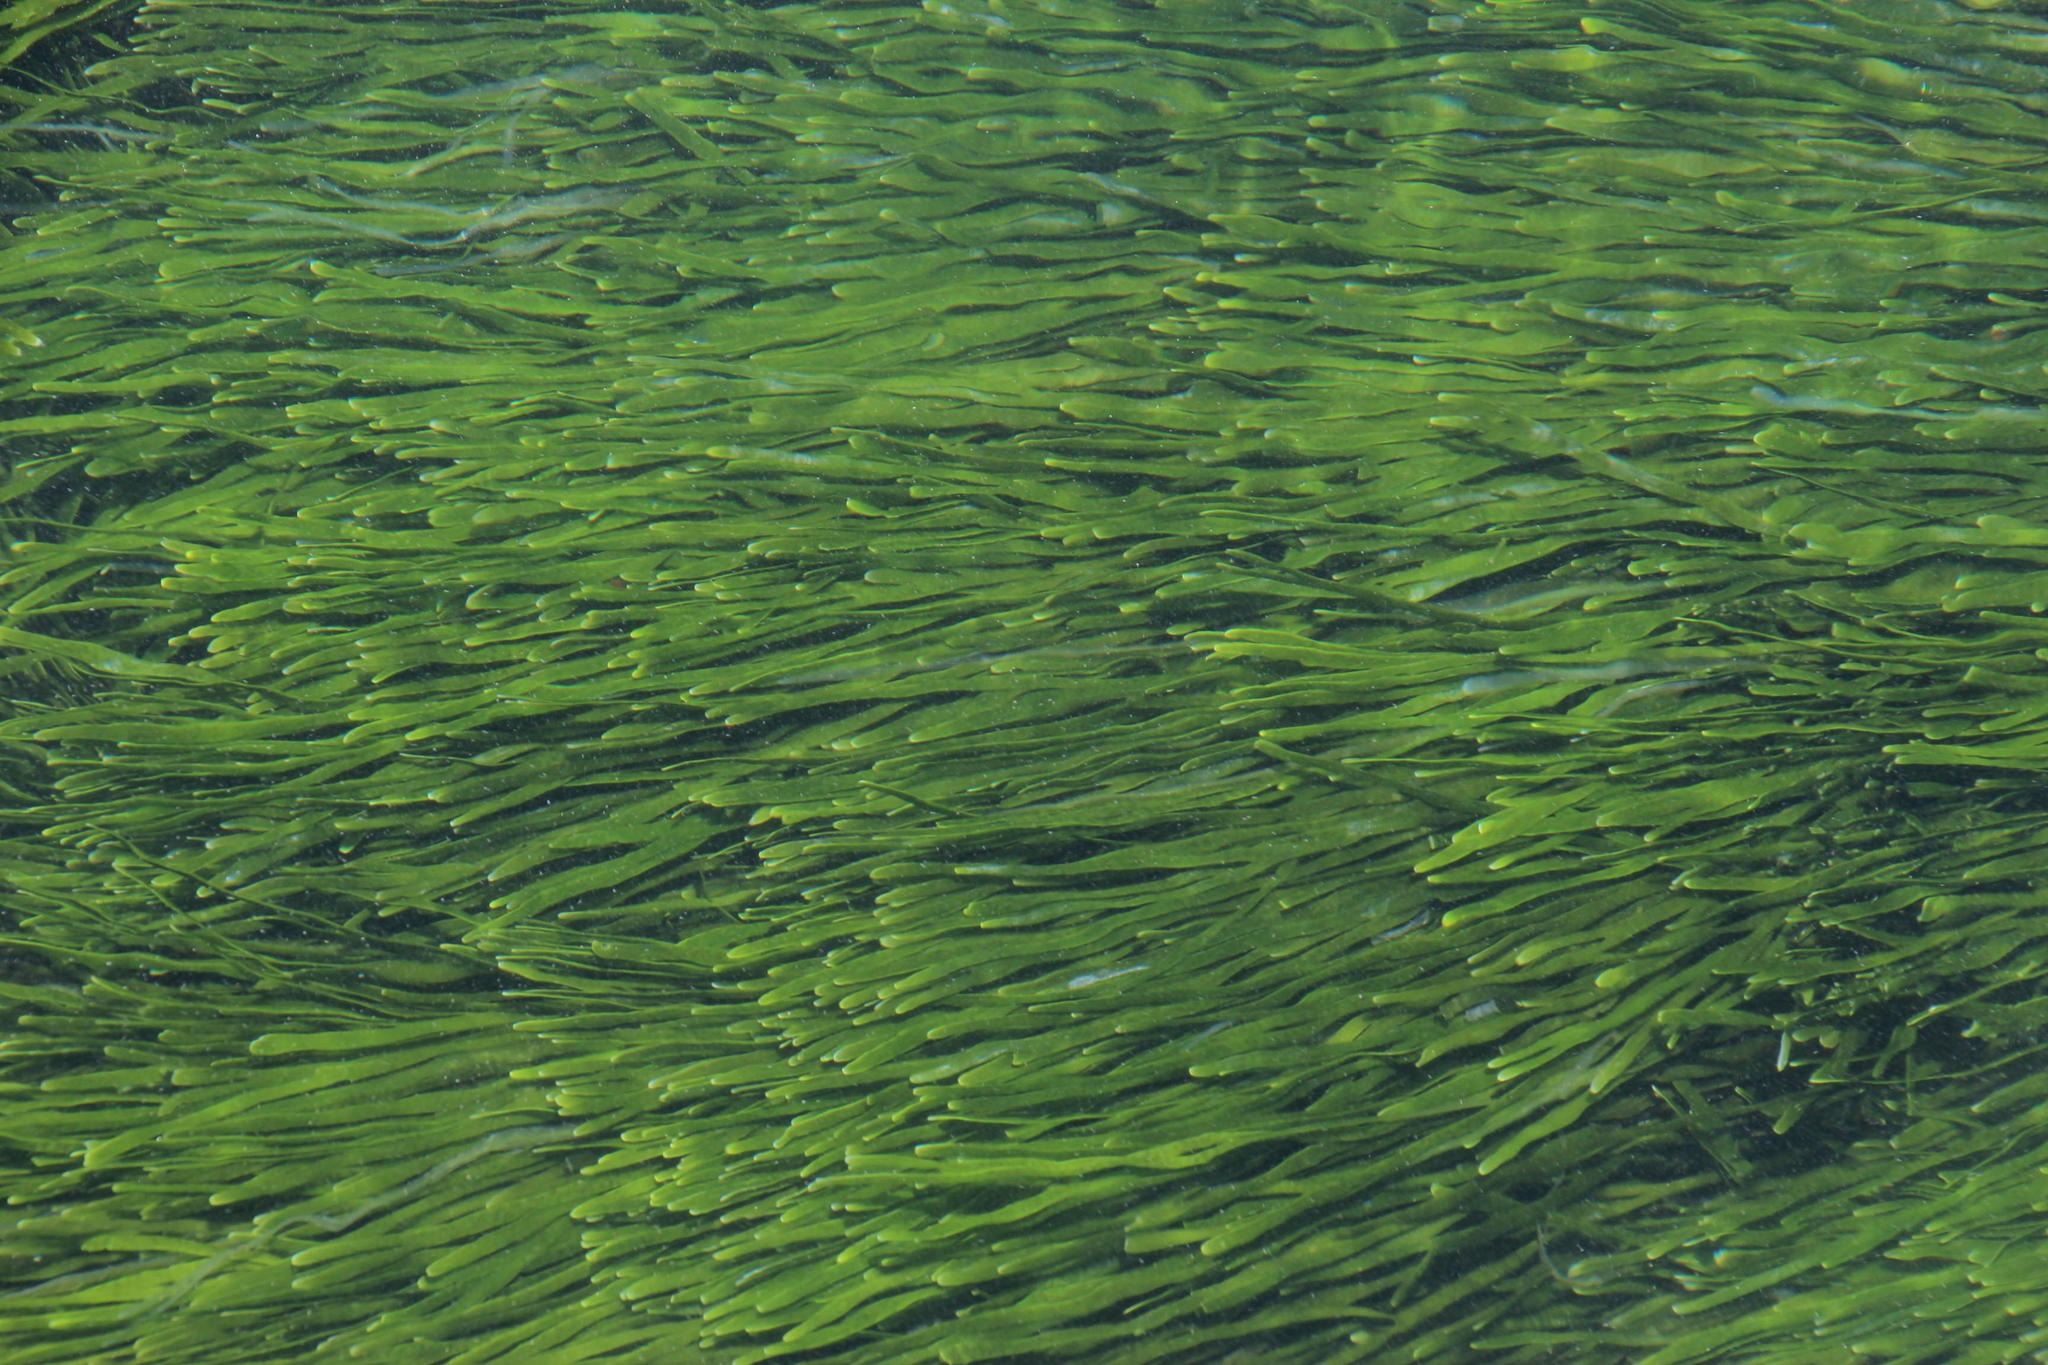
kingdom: Plantae
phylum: Chlorophyta
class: Ulvophyceae
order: Bryopsidales
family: Caulerpaceae
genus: Caulerpa
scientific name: Caulerpa filiformis
